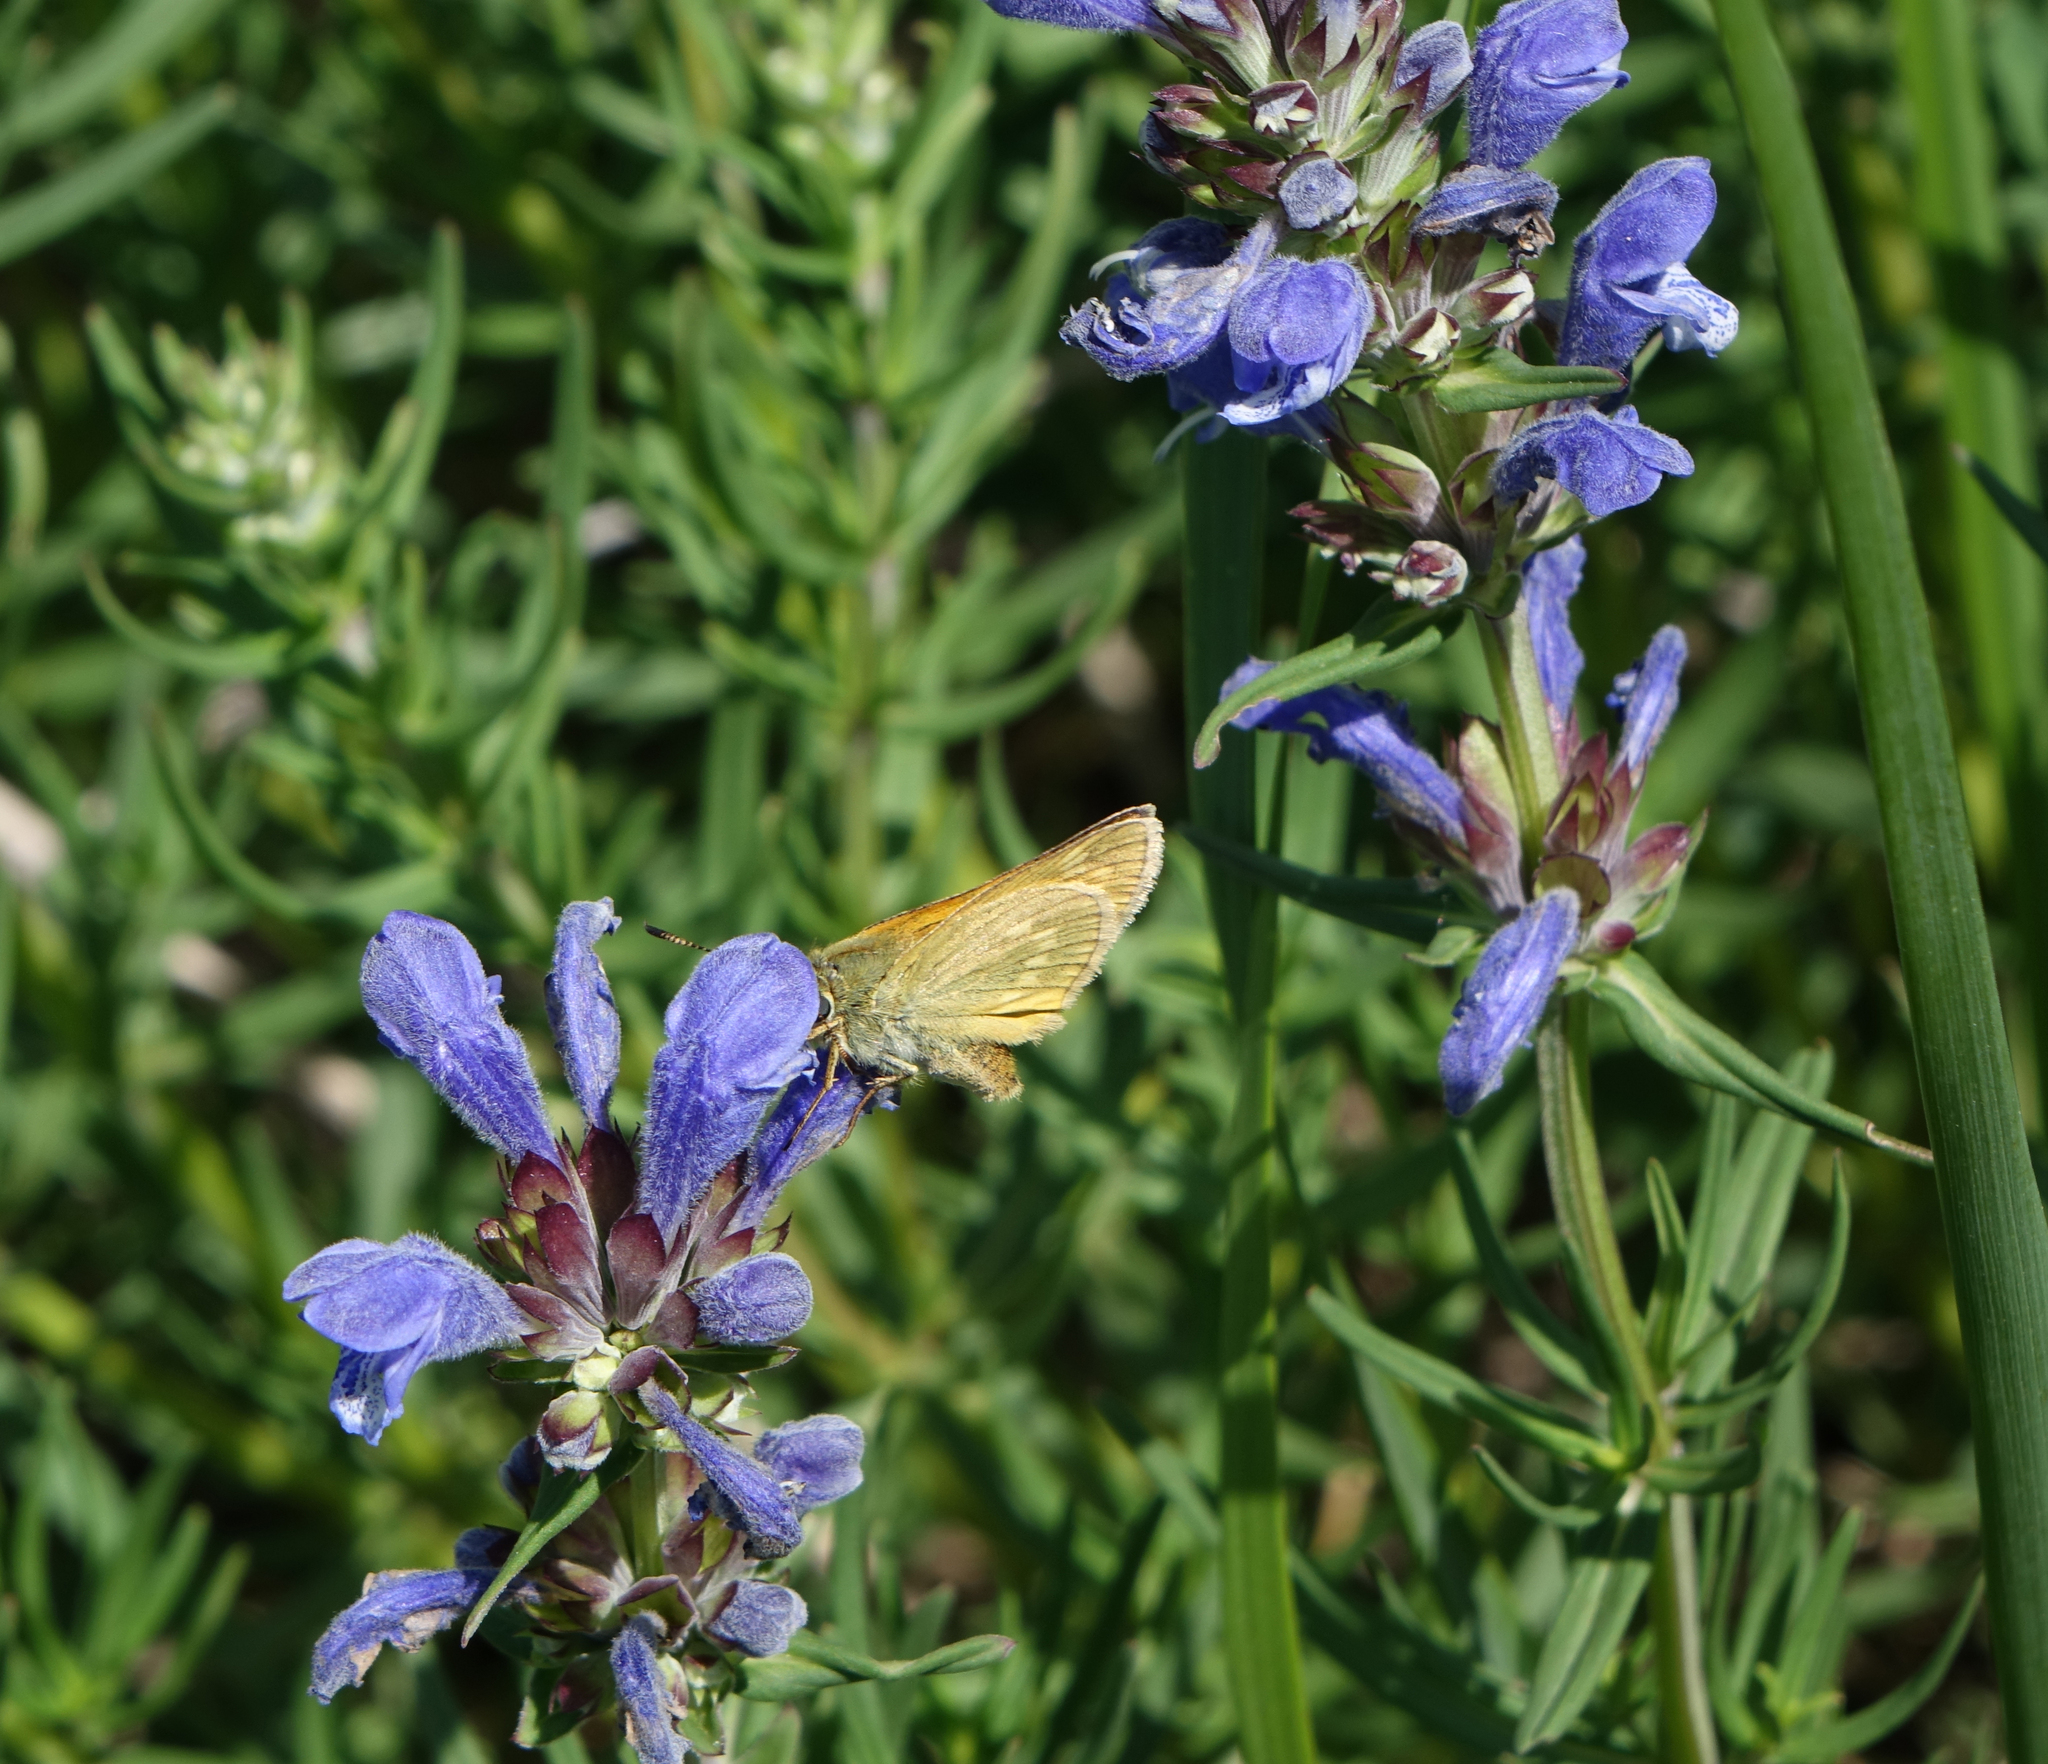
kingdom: Plantae
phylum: Tracheophyta
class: Magnoliopsida
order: Lamiales
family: Lamiaceae
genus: Dracocephalum
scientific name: Dracocephalum ruyschiana
